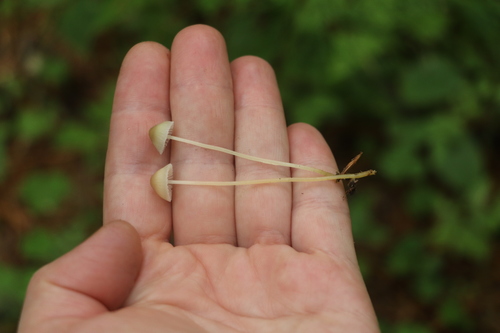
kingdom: Fungi
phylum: Basidiomycota
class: Agaricomycetes
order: Agaricales
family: Mycenaceae
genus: Mycena
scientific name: Mycena epipterygia
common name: Yellowleg bonnet
